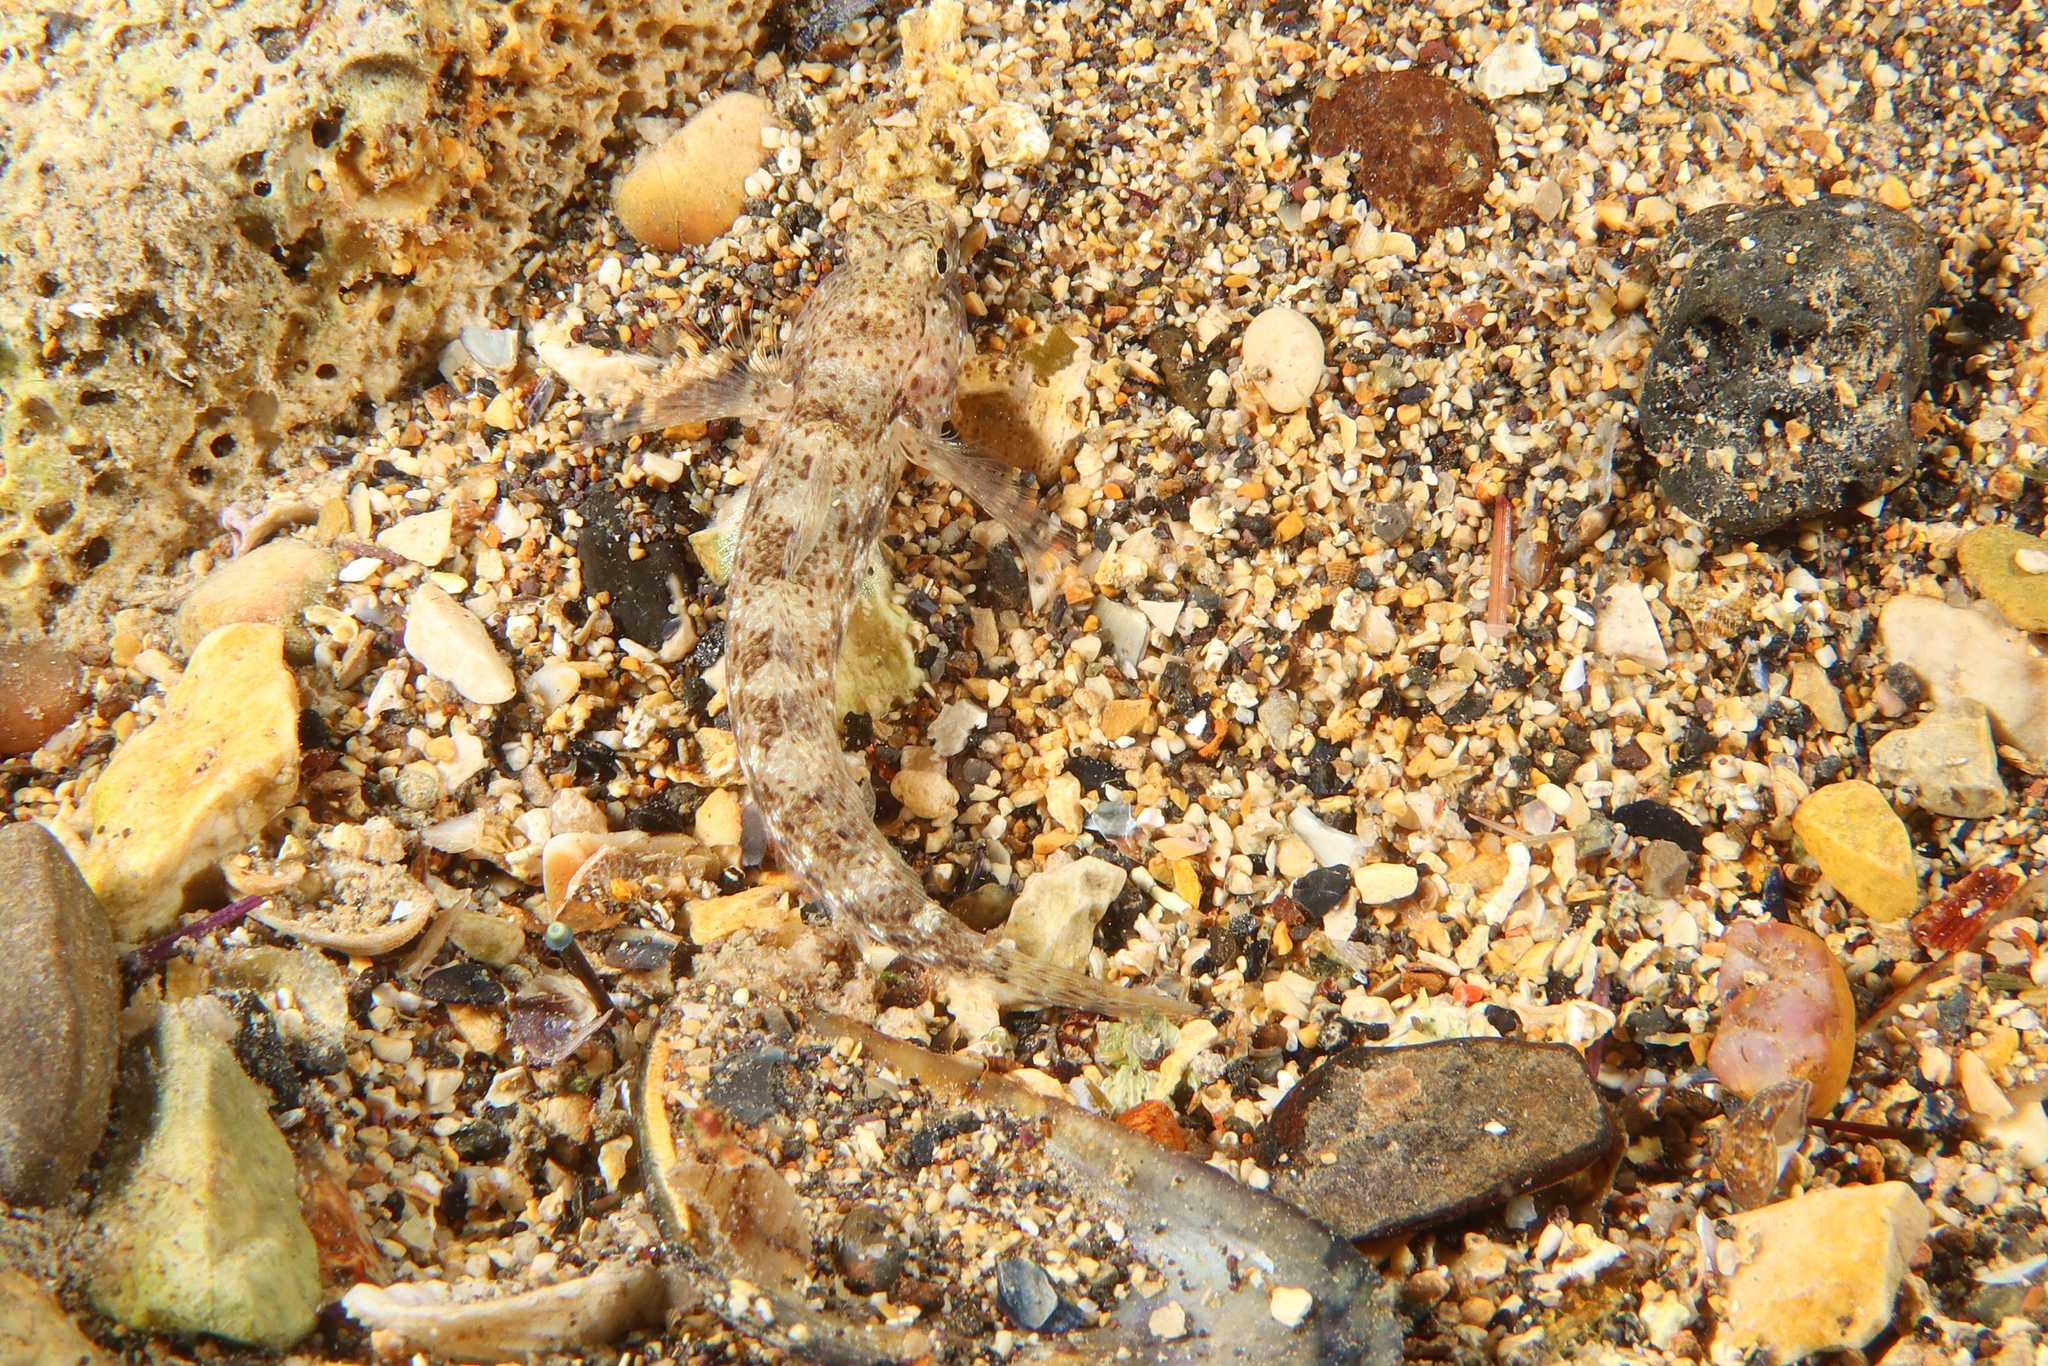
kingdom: Animalia
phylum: Chordata
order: Perciformes
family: Gobiidae
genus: Gobius
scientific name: Gobius incognitus
